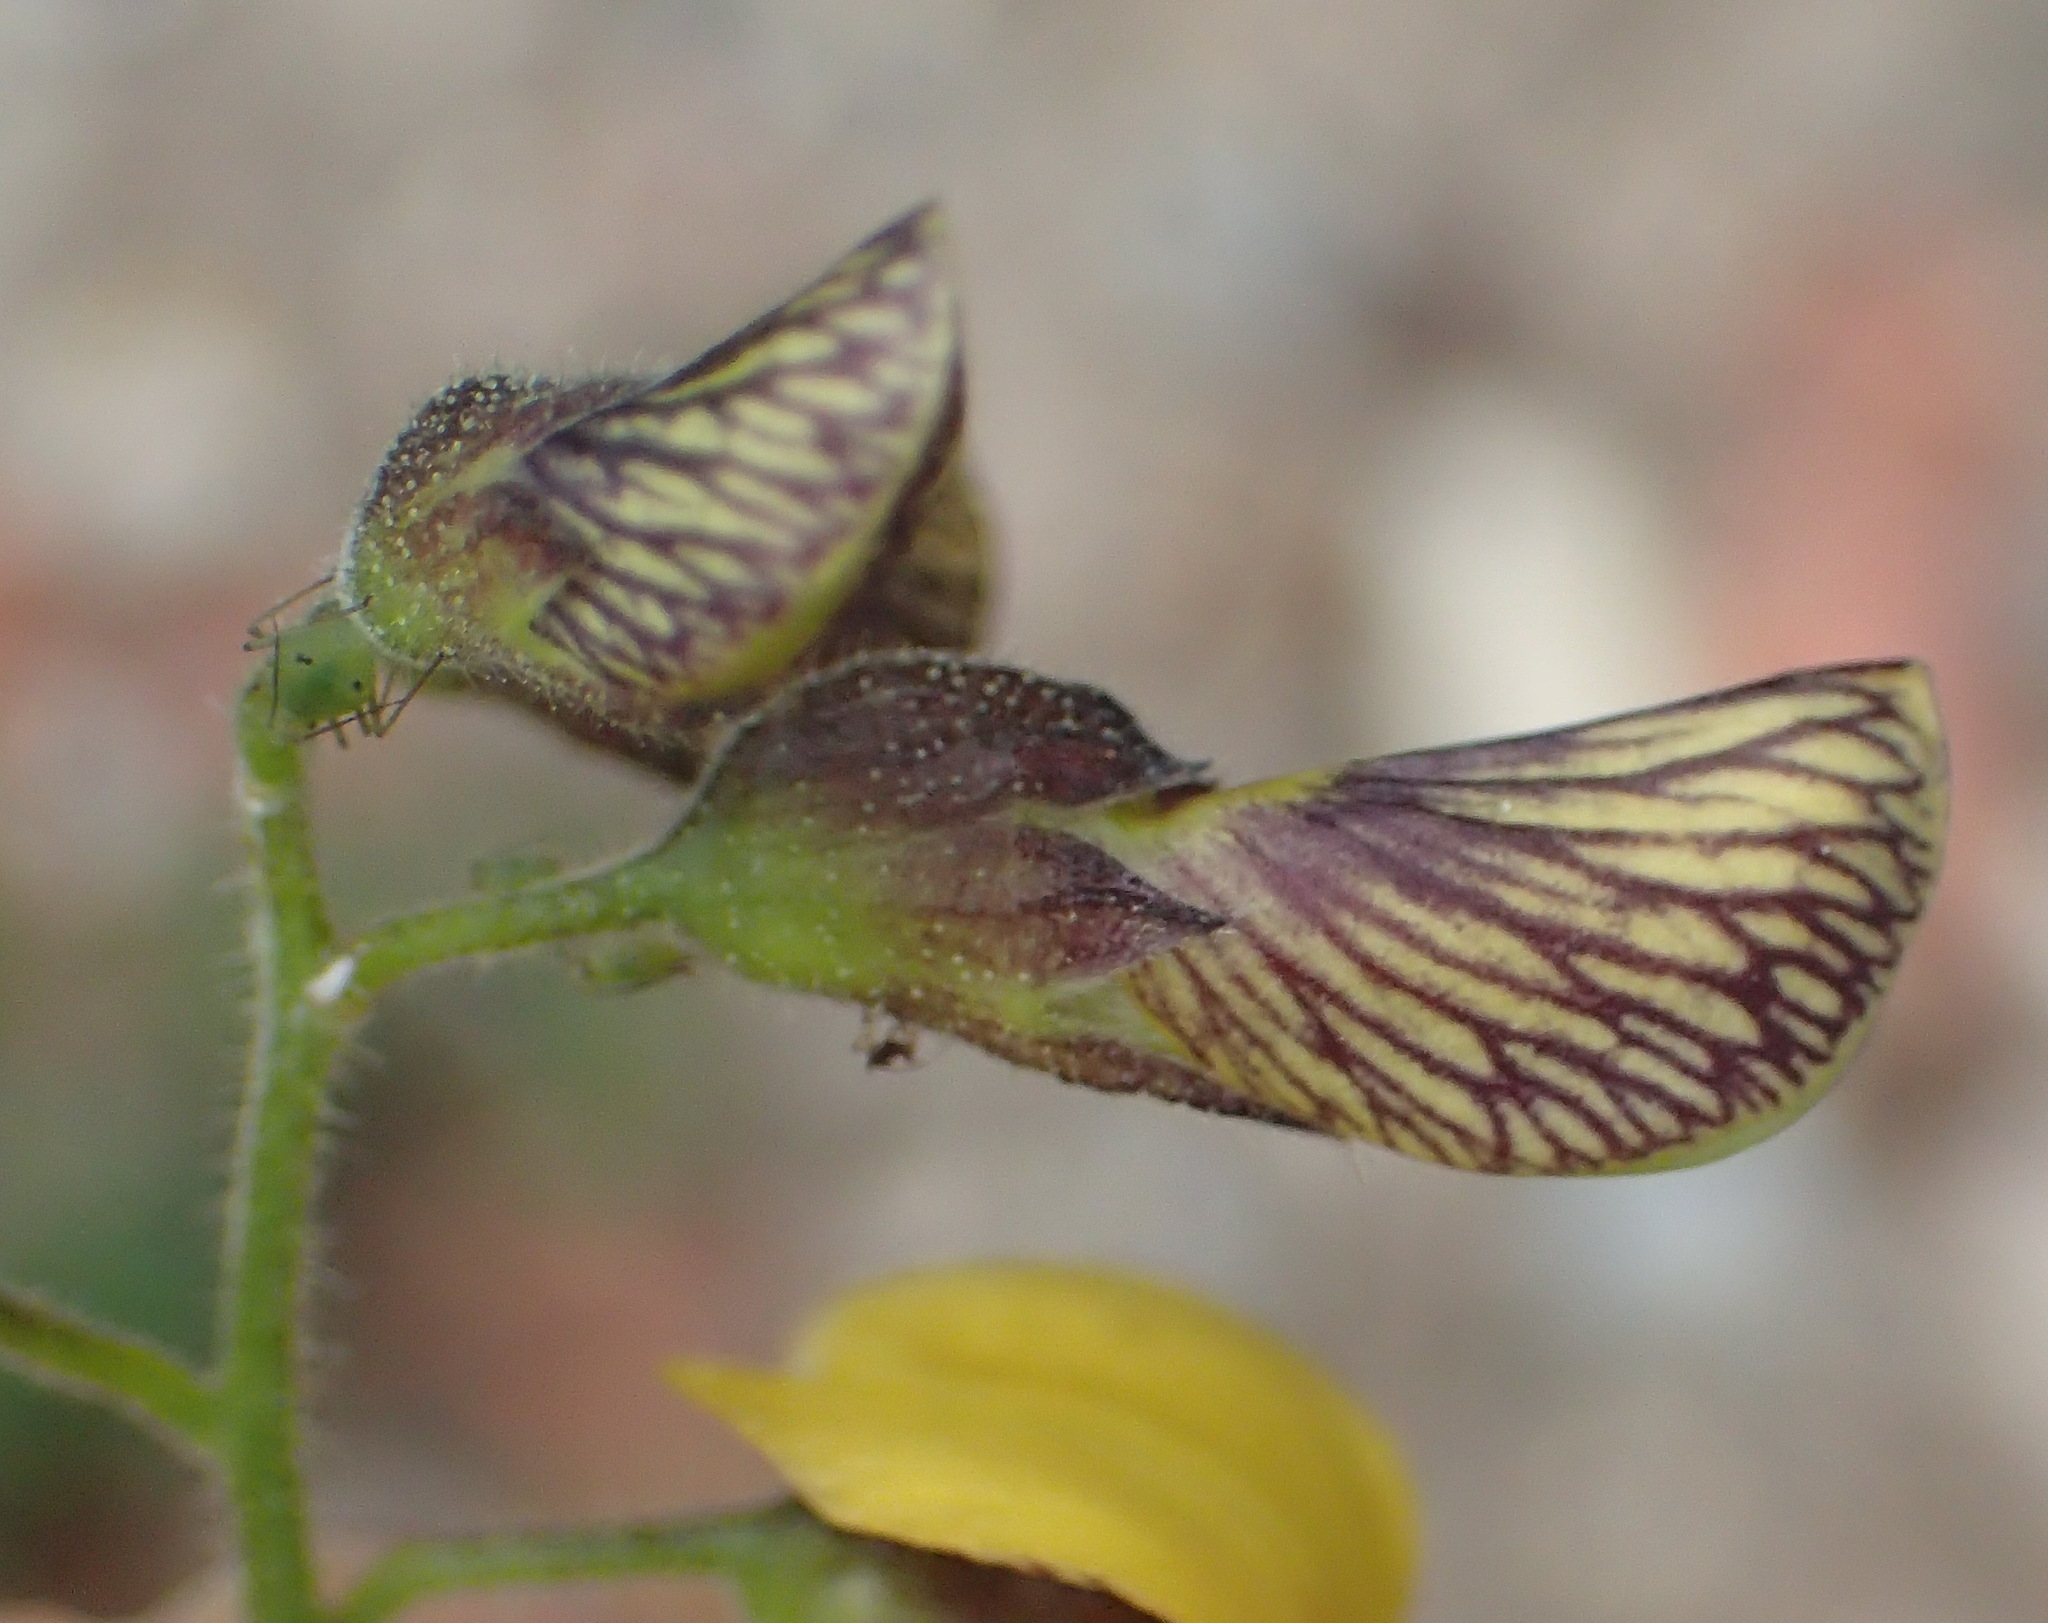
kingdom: Plantae
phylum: Tracheophyta
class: Magnoliopsida
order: Fabales
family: Fabaceae
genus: Rhynchosia
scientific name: Rhynchosia caribaea
